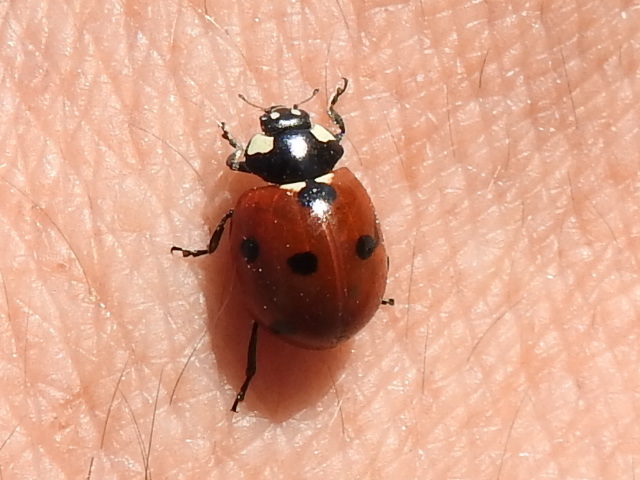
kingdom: Animalia
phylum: Arthropoda
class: Insecta
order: Coleoptera
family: Coccinellidae
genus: Coccinella
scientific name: Coccinella septempunctata
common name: Sevenspotted lady beetle
